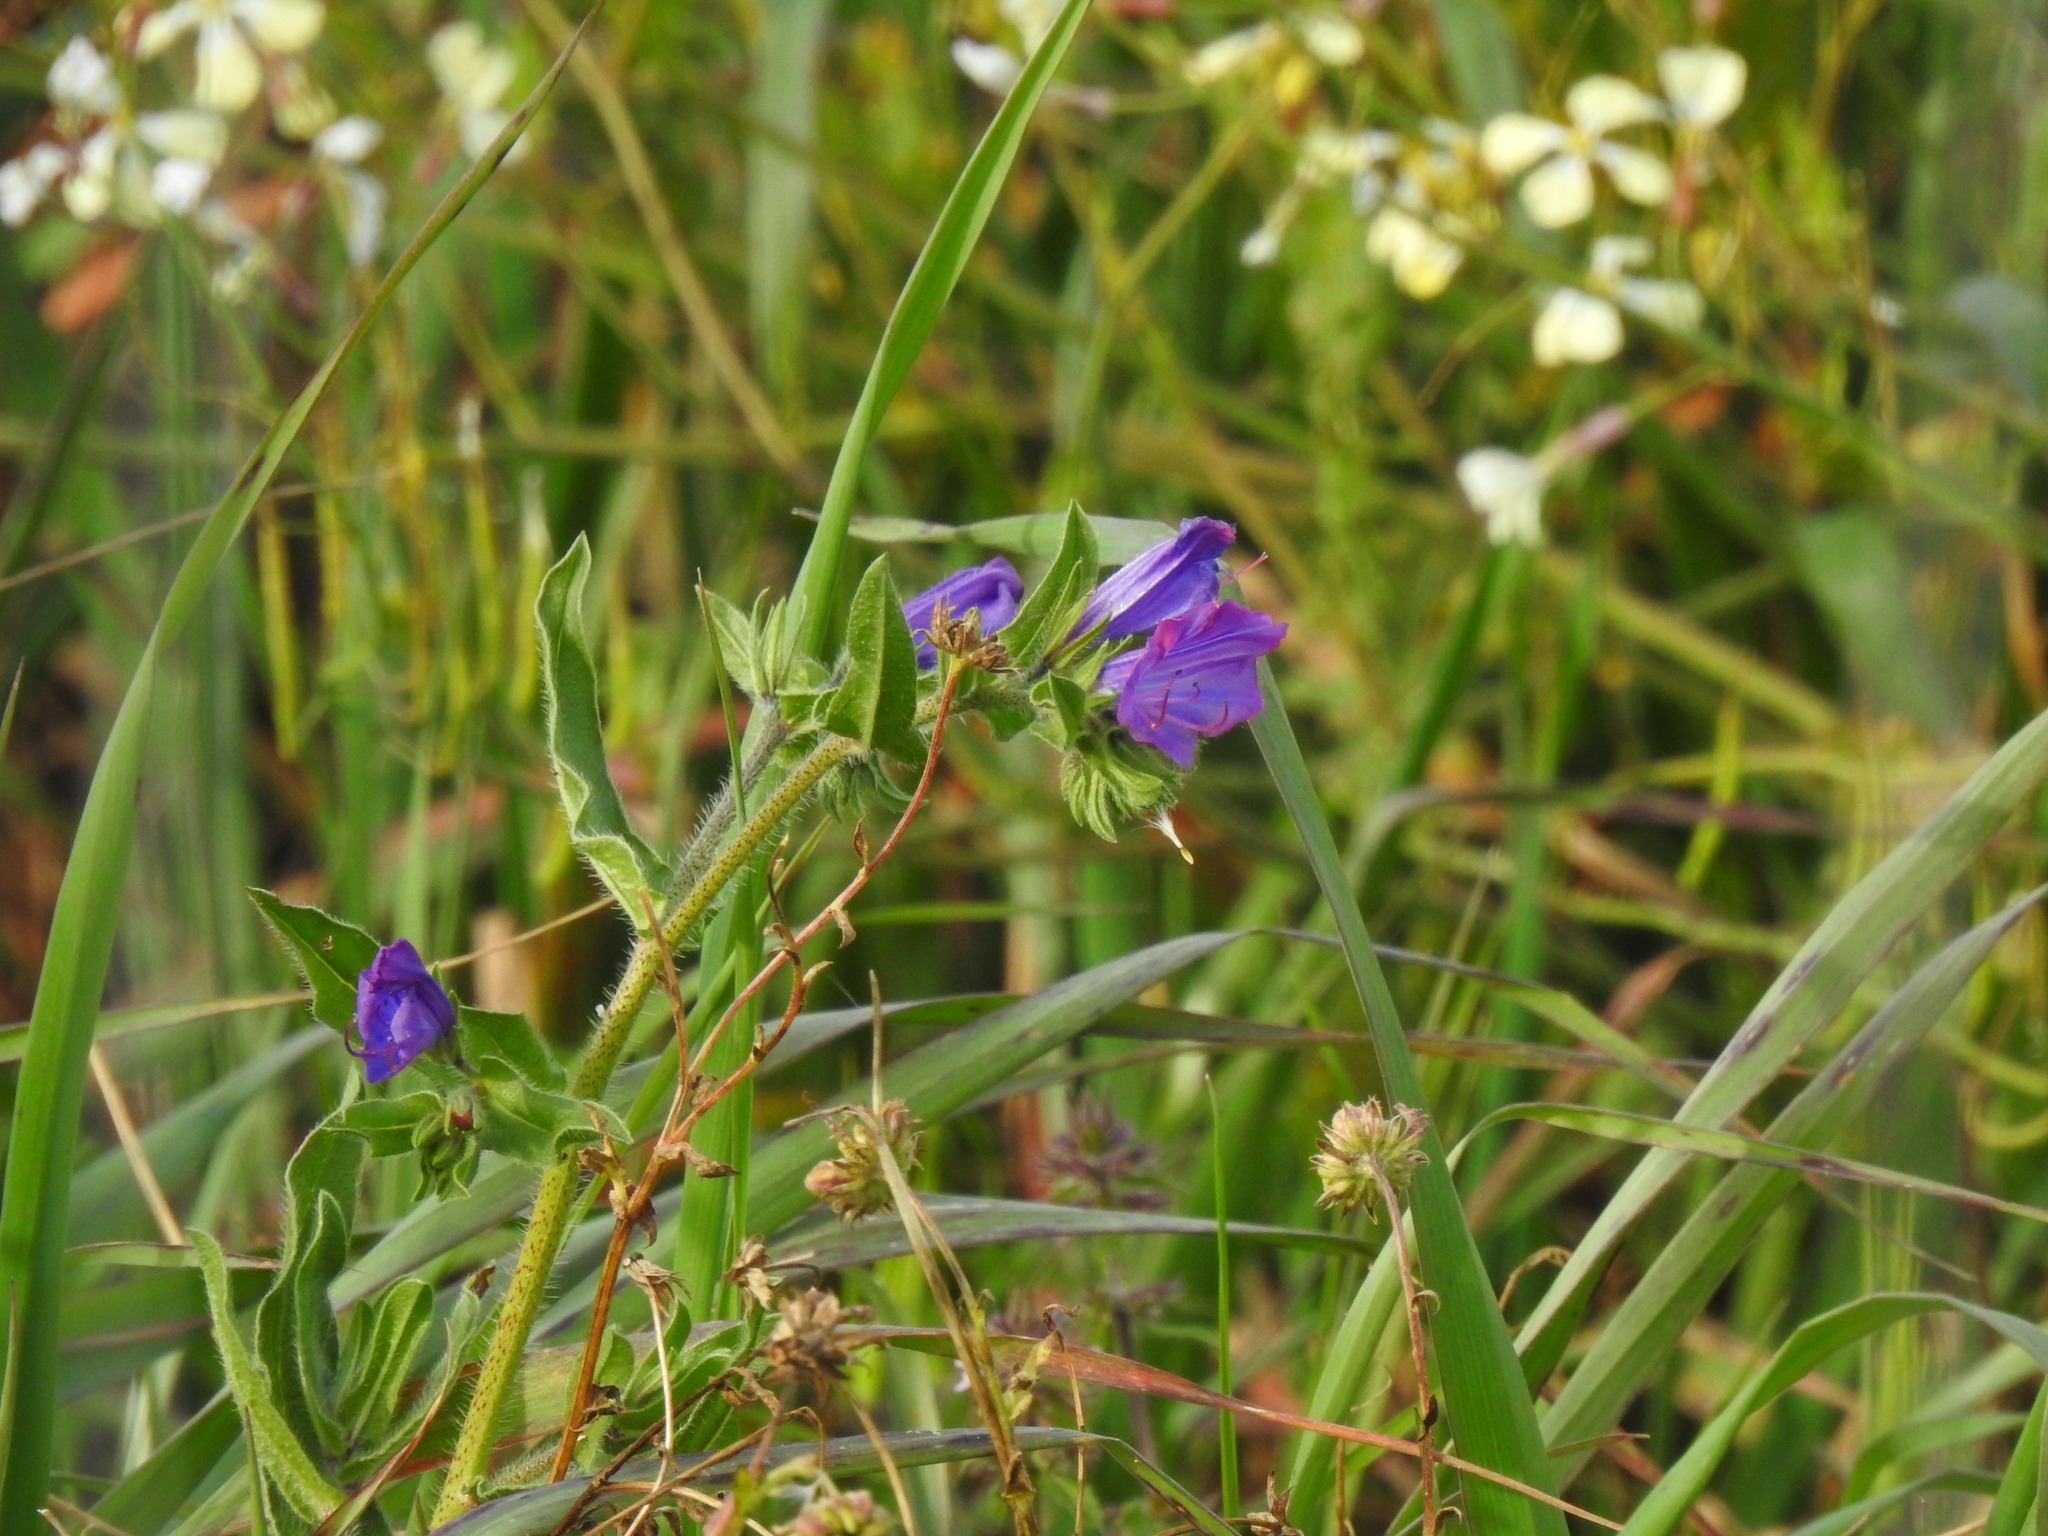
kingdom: Plantae
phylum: Tracheophyta
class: Magnoliopsida
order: Boraginales
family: Boraginaceae
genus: Echium
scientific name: Echium plantagineum
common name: Purple viper's-bugloss
